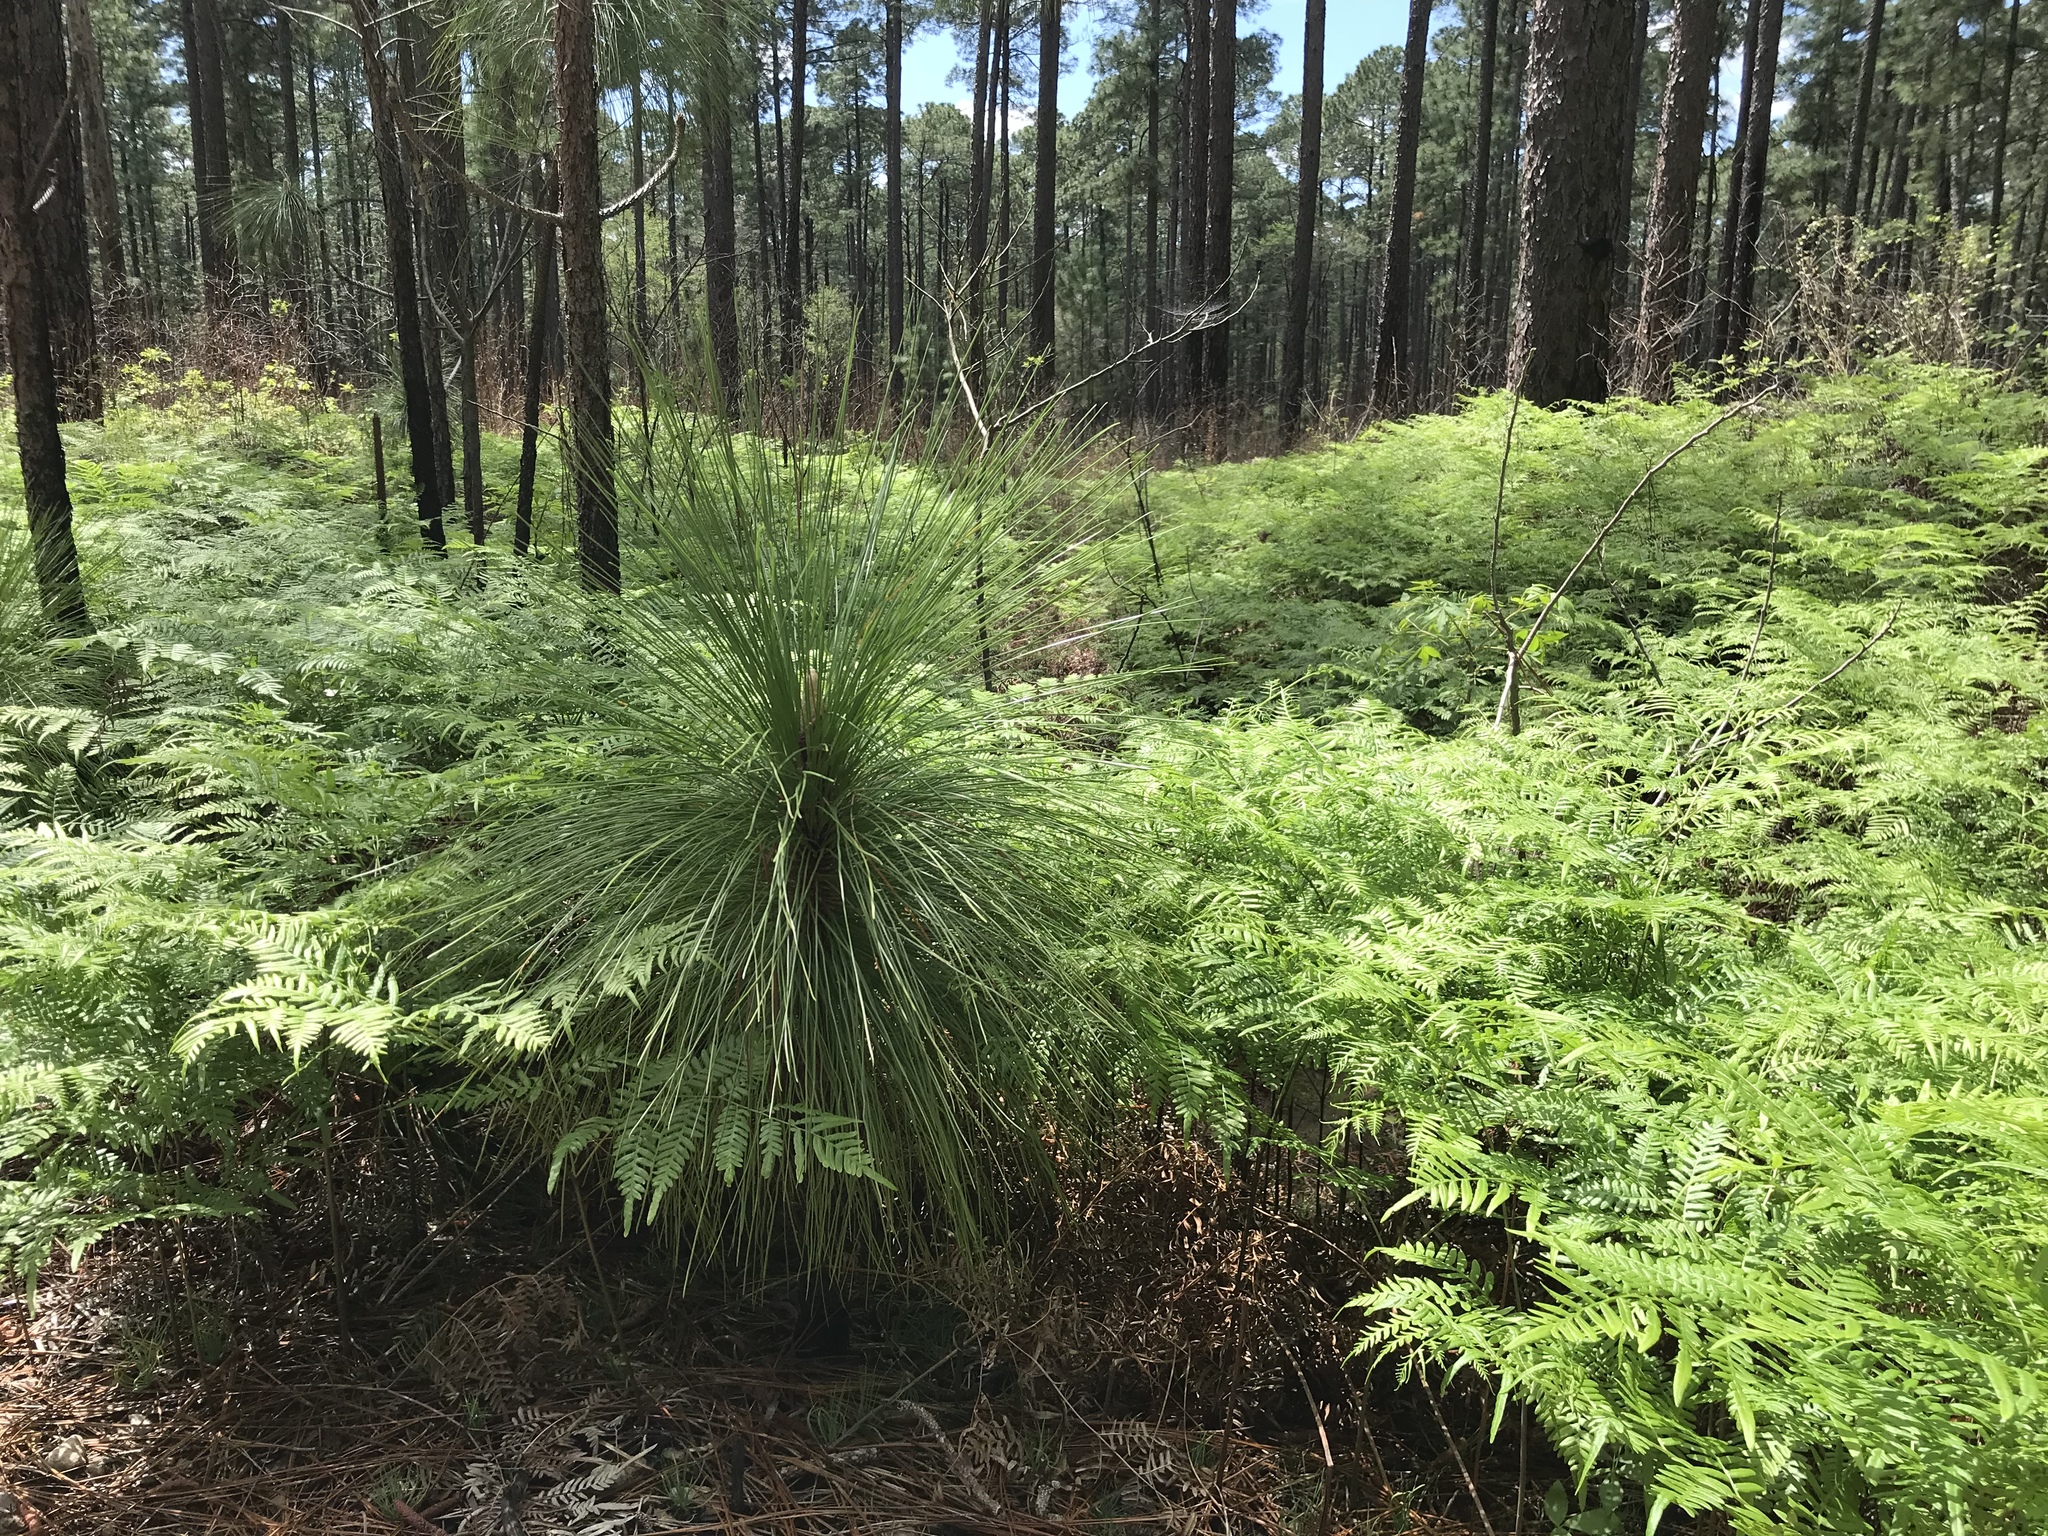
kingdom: Plantae
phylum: Tracheophyta
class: Polypodiopsida
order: Polypodiales
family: Dennstaedtiaceae
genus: Pteridium
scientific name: Pteridium aquilinum
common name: Bracken
